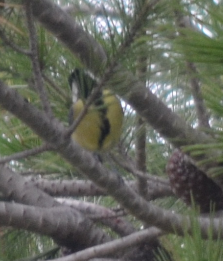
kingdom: Animalia
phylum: Chordata
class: Aves
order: Passeriformes
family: Paridae
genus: Parus
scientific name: Parus major
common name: Great tit
